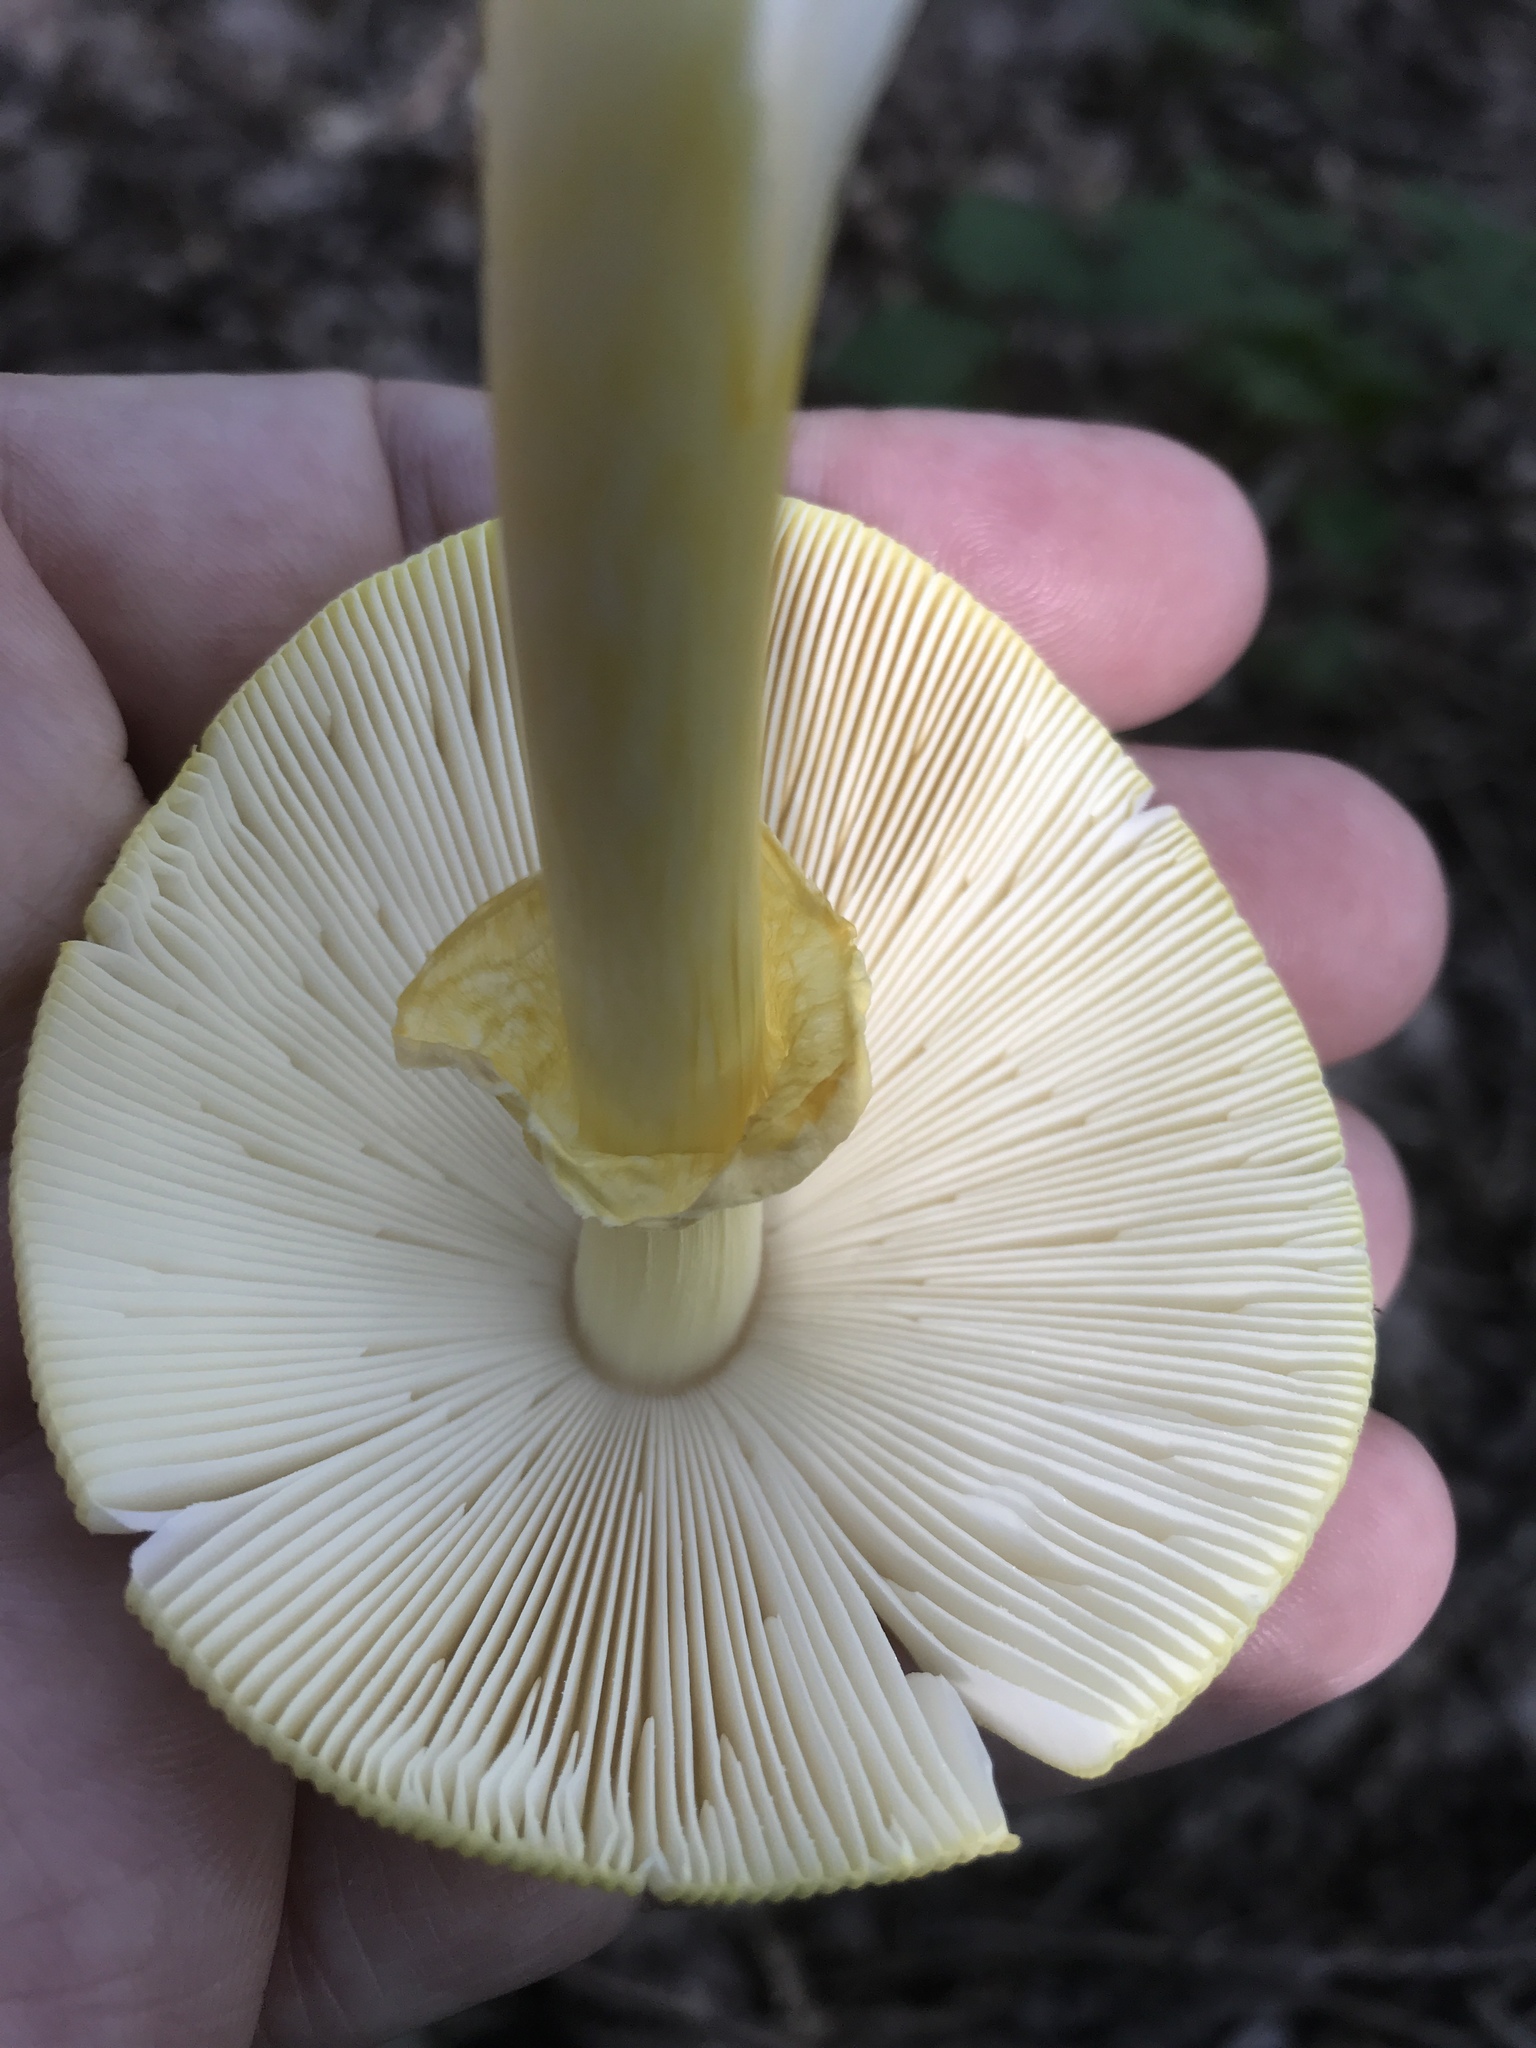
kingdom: Fungi
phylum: Basidiomycota
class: Agaricomycetes
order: Agaricales
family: Amanitaceae
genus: Amanita
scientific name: Amanita jacksonii
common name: Jackson's slender caesar
